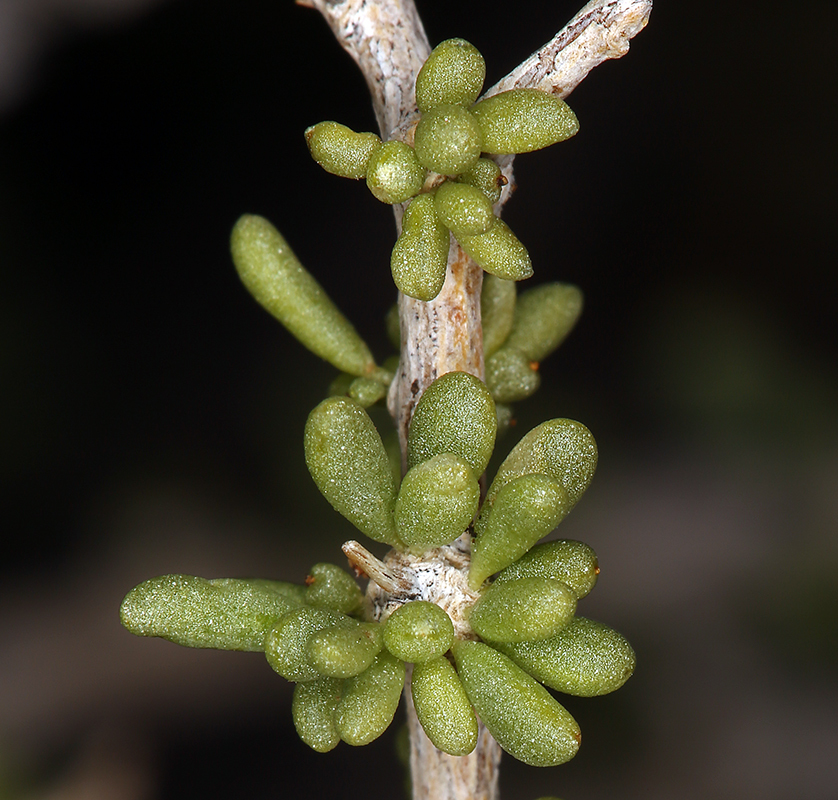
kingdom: Plantae
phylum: Tracheophyta
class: Magnoliopsida
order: Solanales
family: Solanaceae
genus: Lycium
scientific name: Lycium andersonii
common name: Water-jacket
